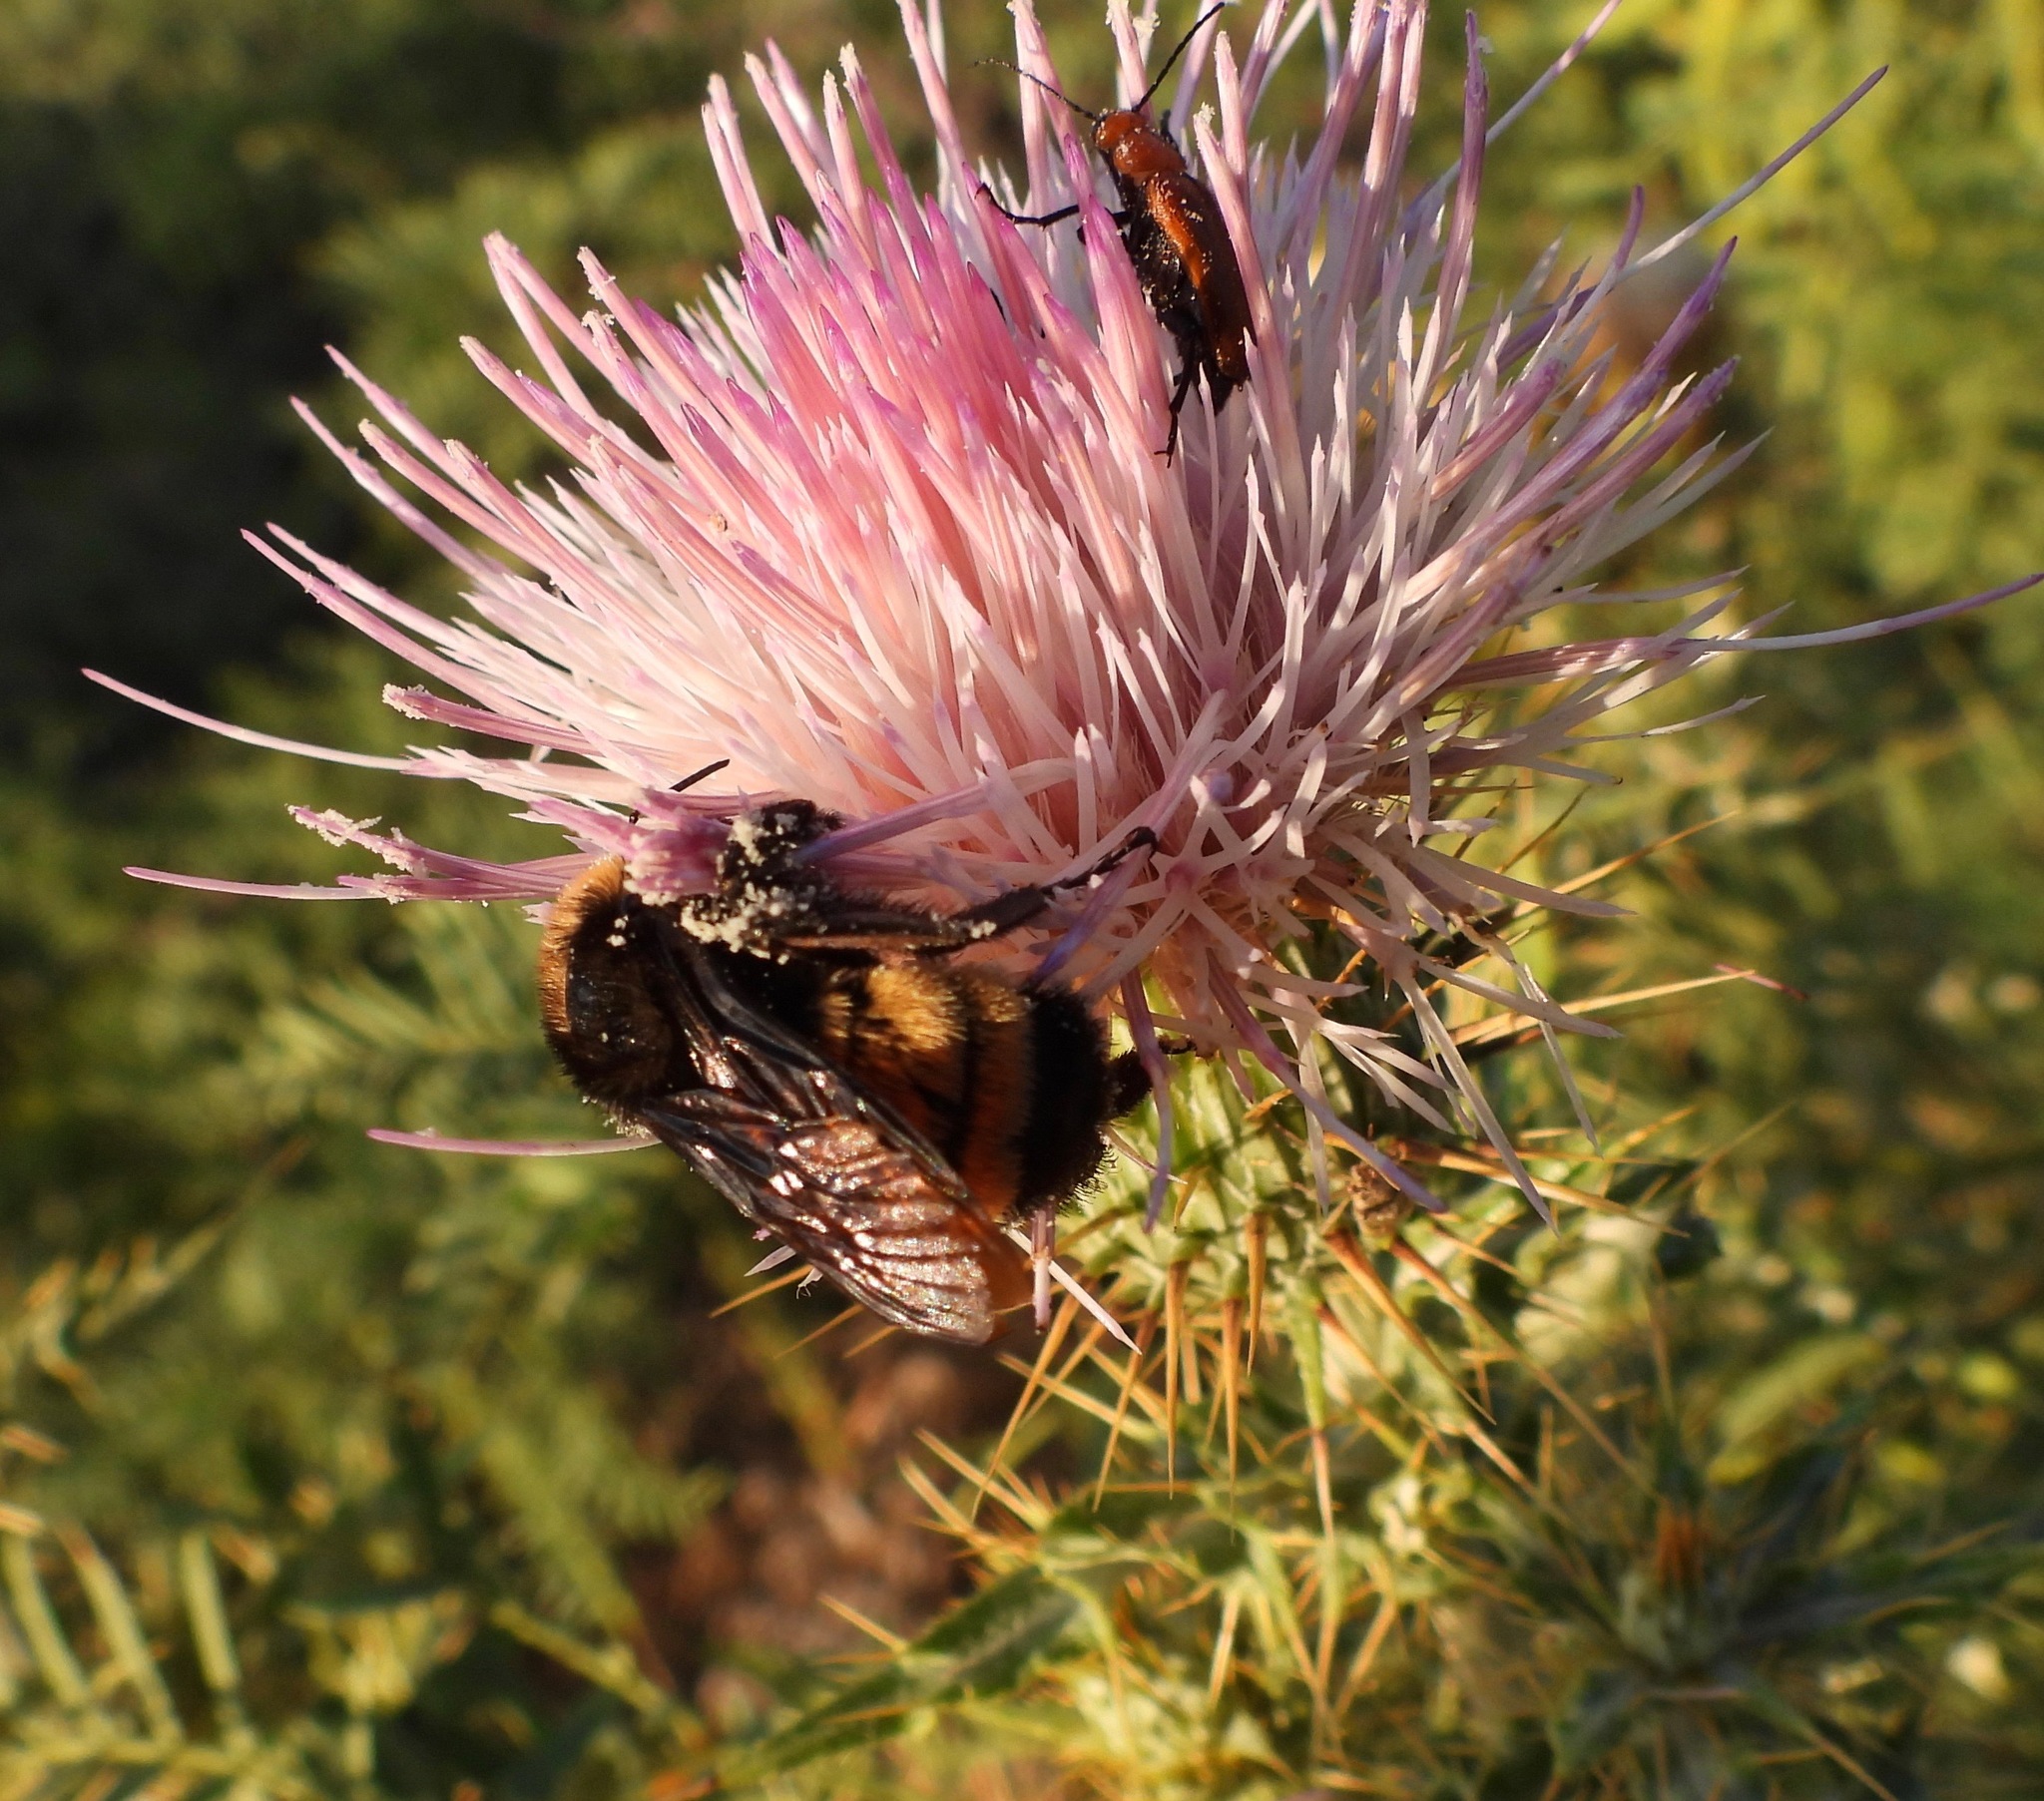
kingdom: Animalia
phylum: Arthropoda
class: Insecta
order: Hymenoptera
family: Apidae
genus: Bombus
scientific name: Bombus pensylvanicus
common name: Bumble bee
